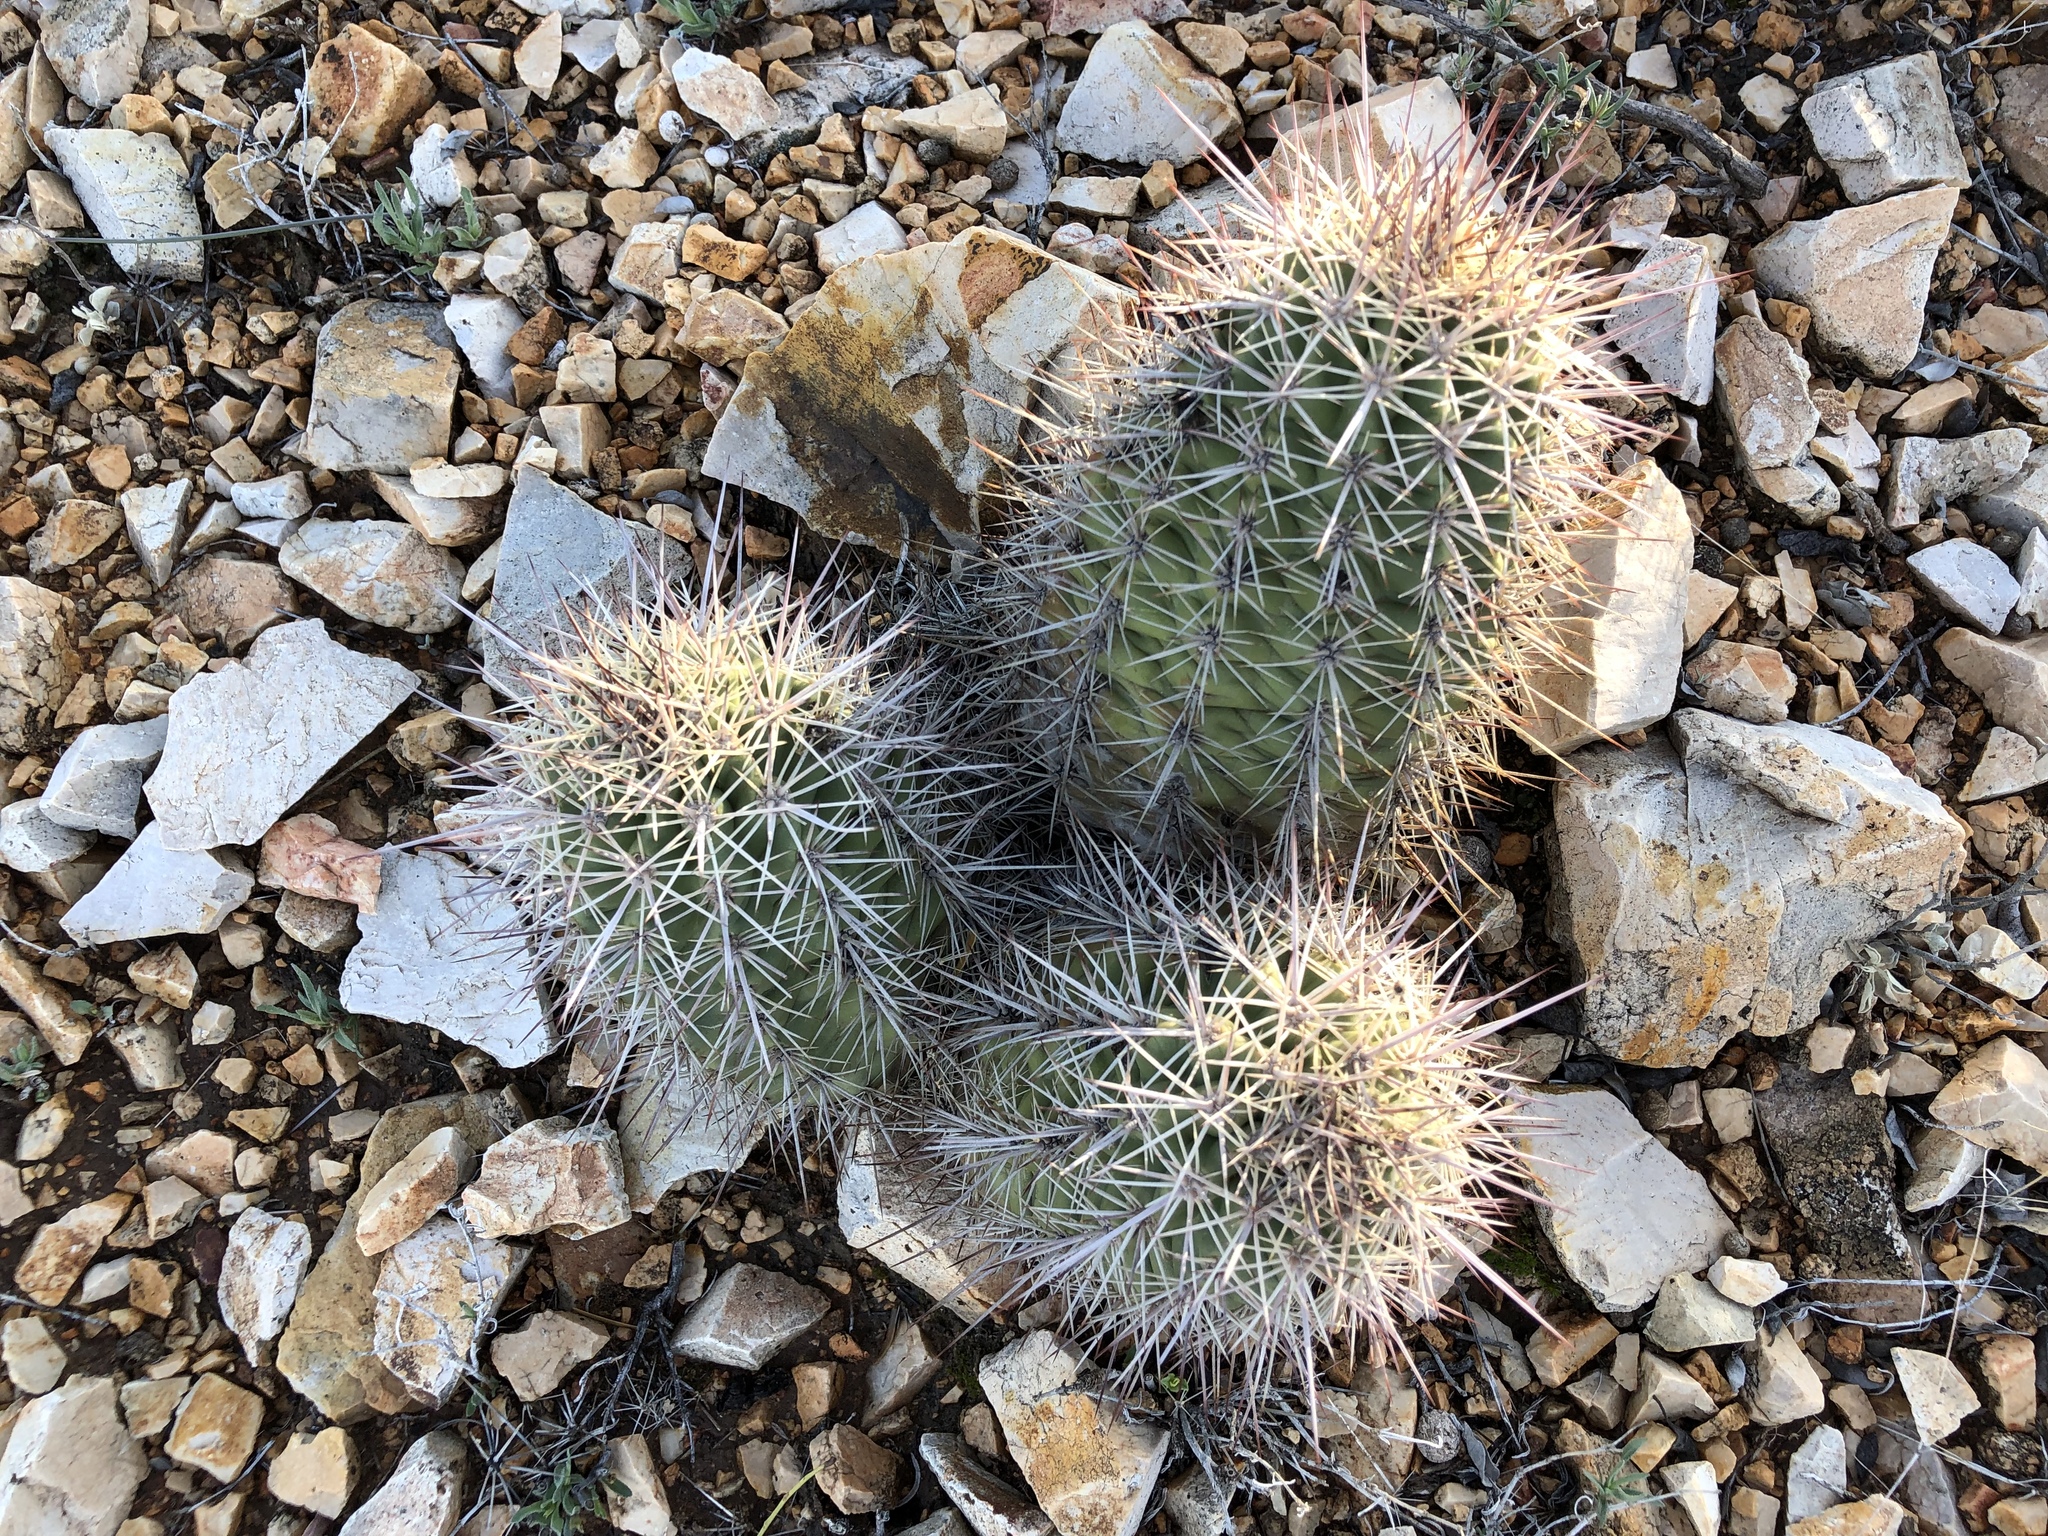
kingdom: Plantae
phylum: Tracheophyta
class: Magnoliopsida
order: Caryophyllales
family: Cactaceae
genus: Echinocereus
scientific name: Echinocereus coccineus
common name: Scarlet hedgehog cactus
